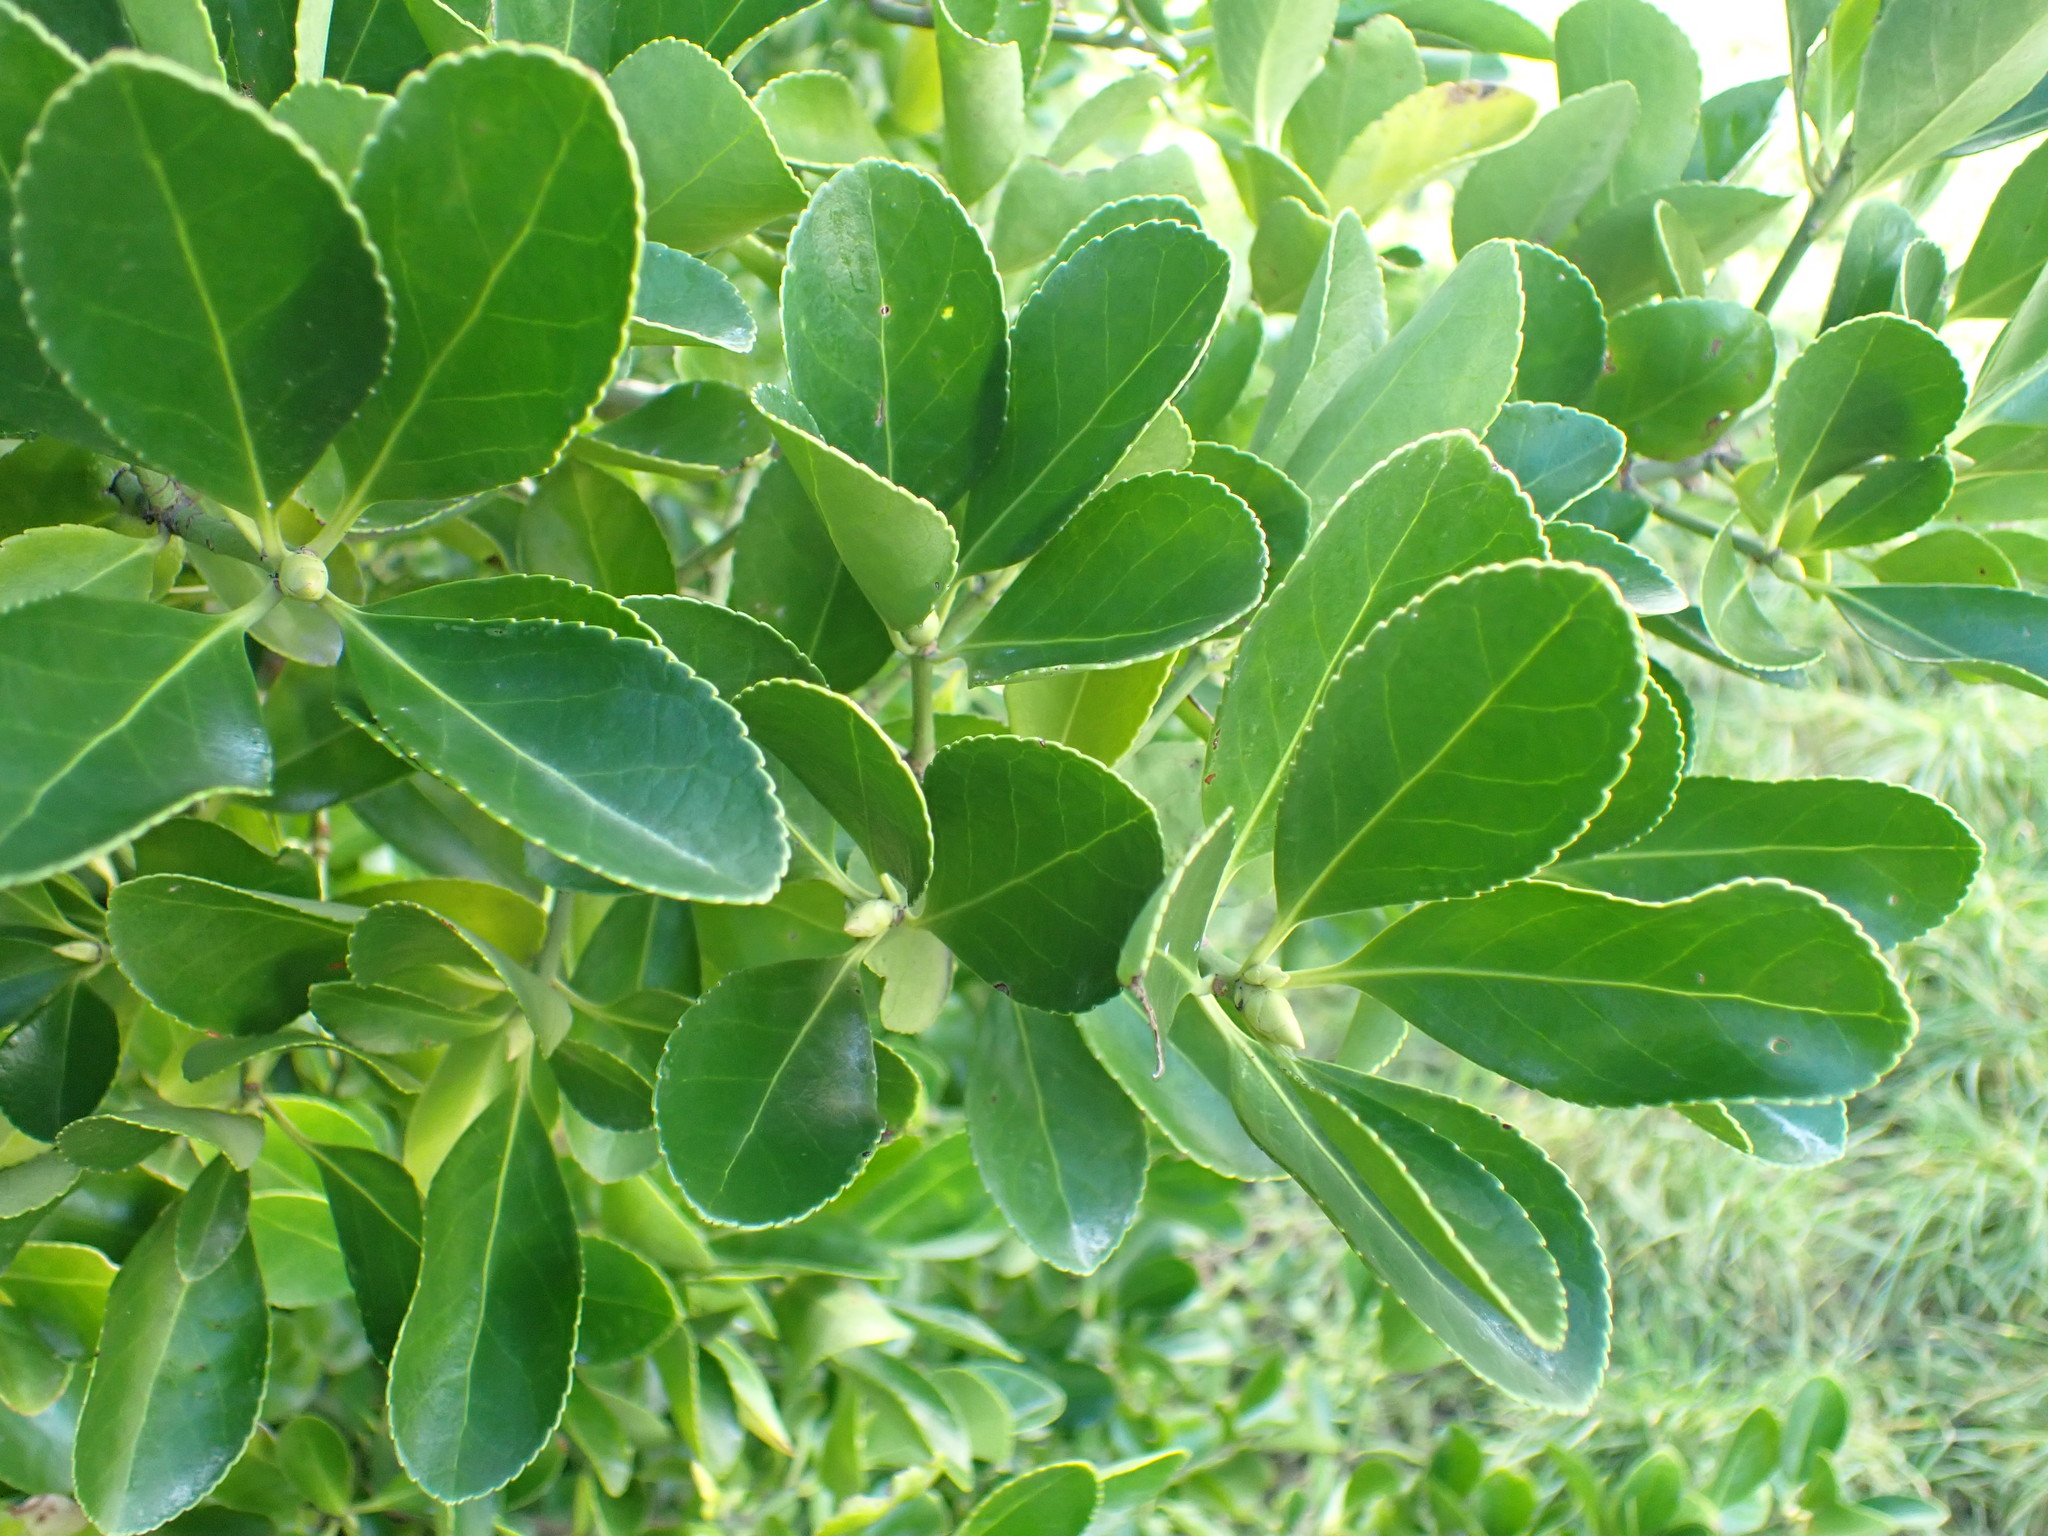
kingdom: Plantae
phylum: Tracheophyta
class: Magnoliopsida
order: Celastrales
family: Celastraceae
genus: Euonymus
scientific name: Euonymus japonicus
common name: Japanese spindletree
